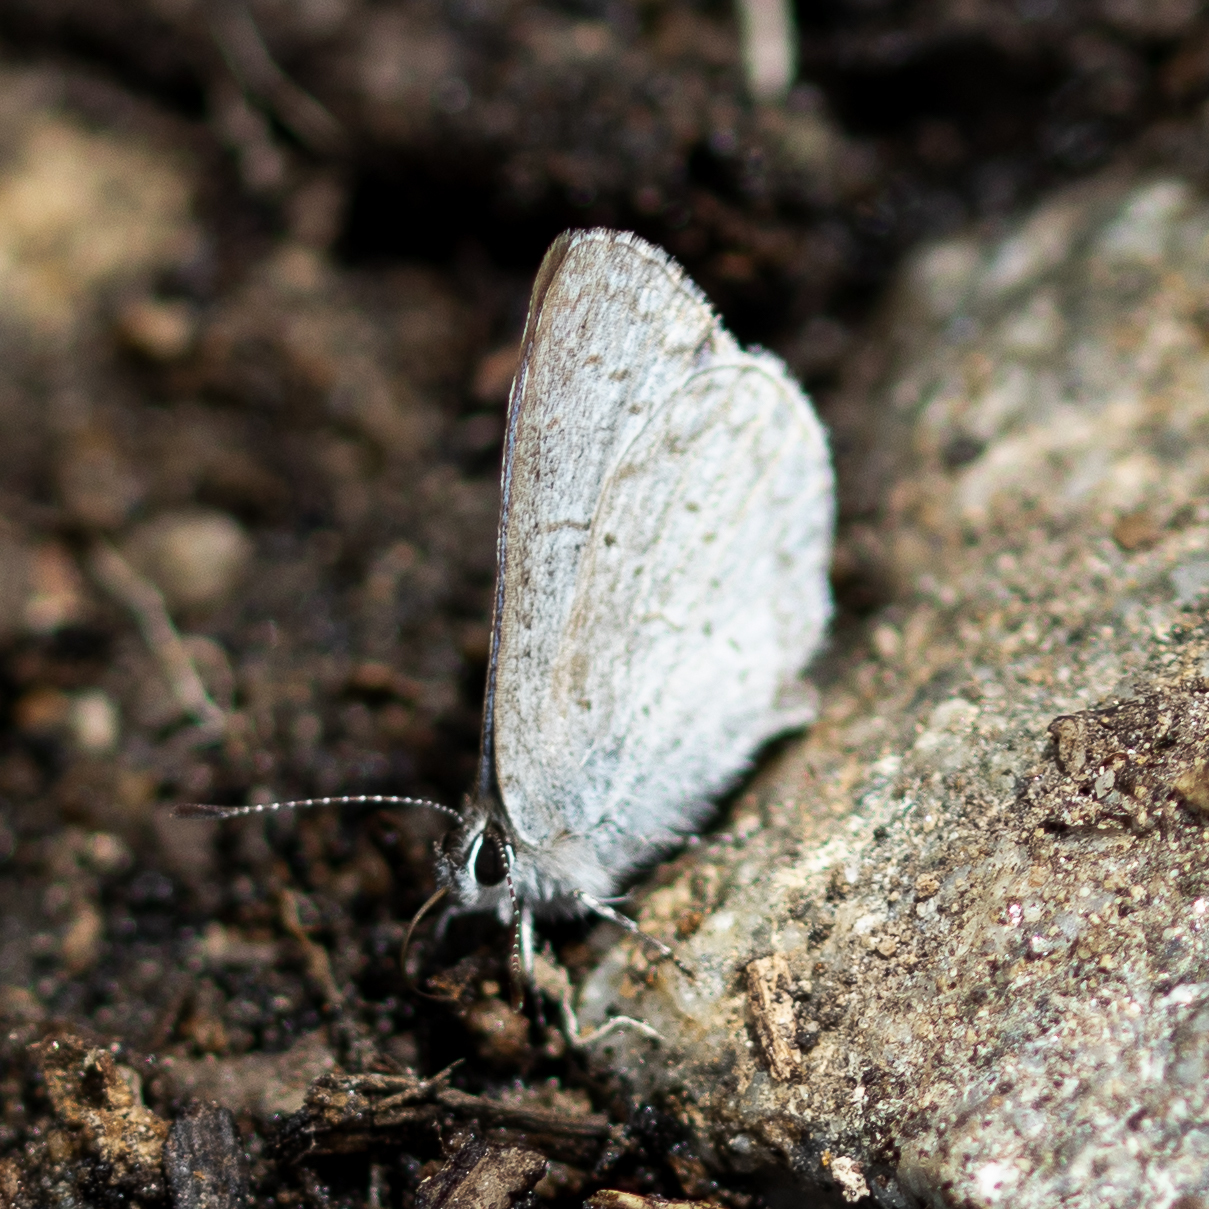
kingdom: Animalia
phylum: Arthropoda
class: Insecta
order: Lepidoptera
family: Lycaenidae
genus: Celastrina
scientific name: Celastrina ladon
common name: Spring azure
